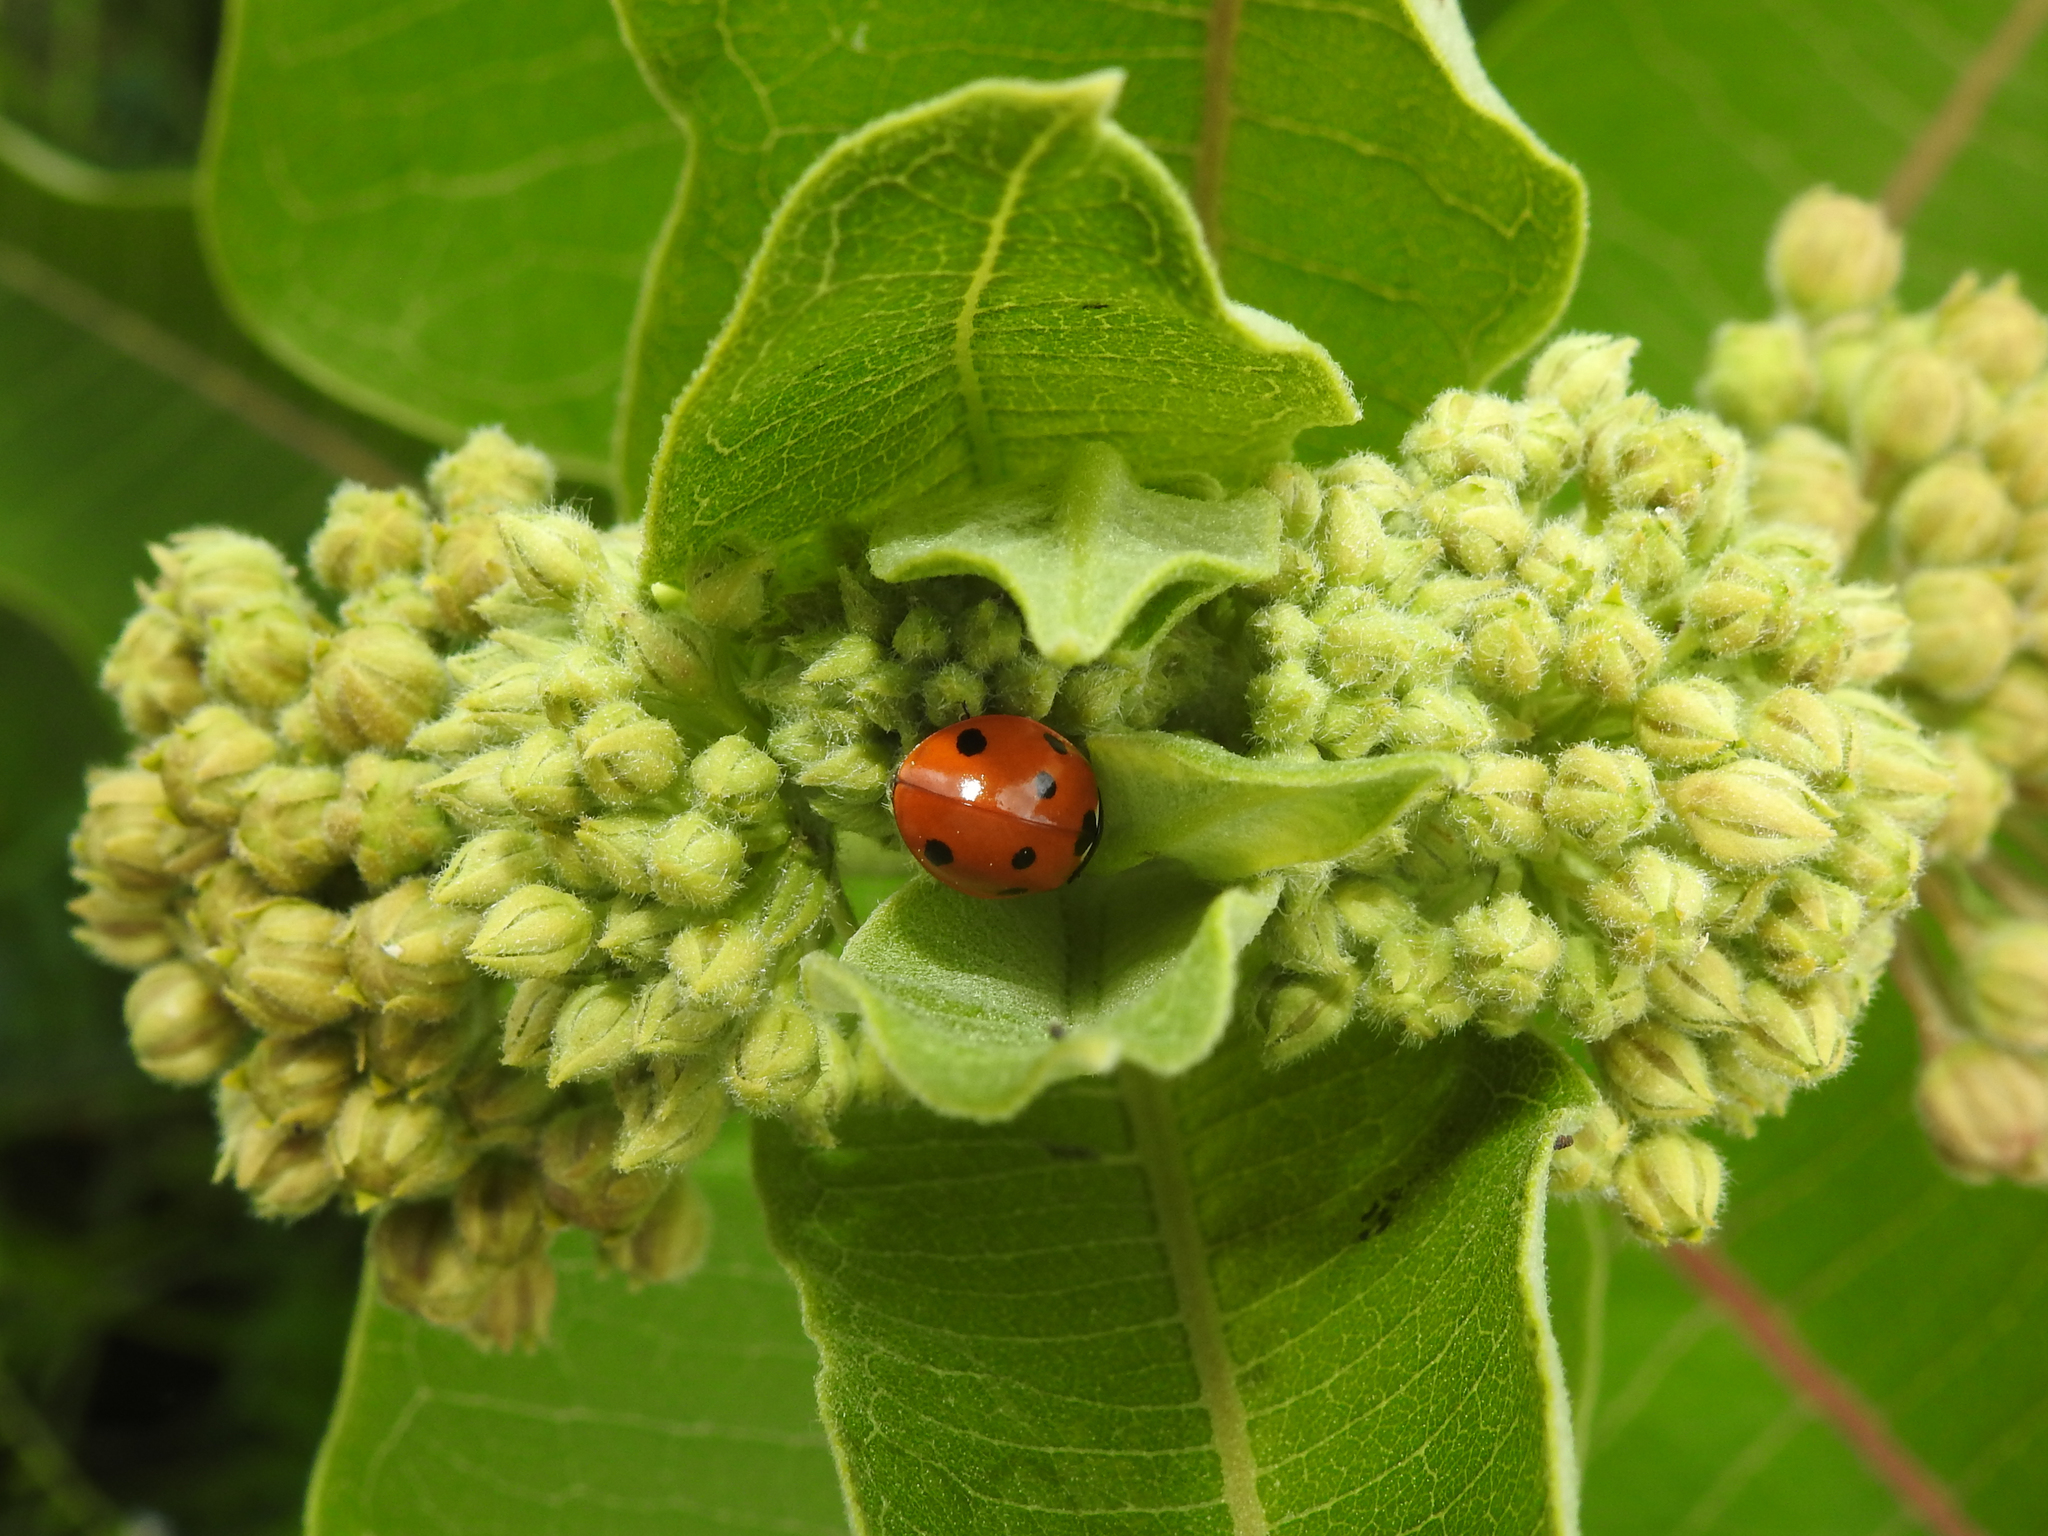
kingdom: Animalia
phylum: Arthropoda
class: Insecta
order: Coleoptera
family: Coccinellidae
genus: Coccinella
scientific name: Coccinella septempunctata
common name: Sevenspotted lady beetle
